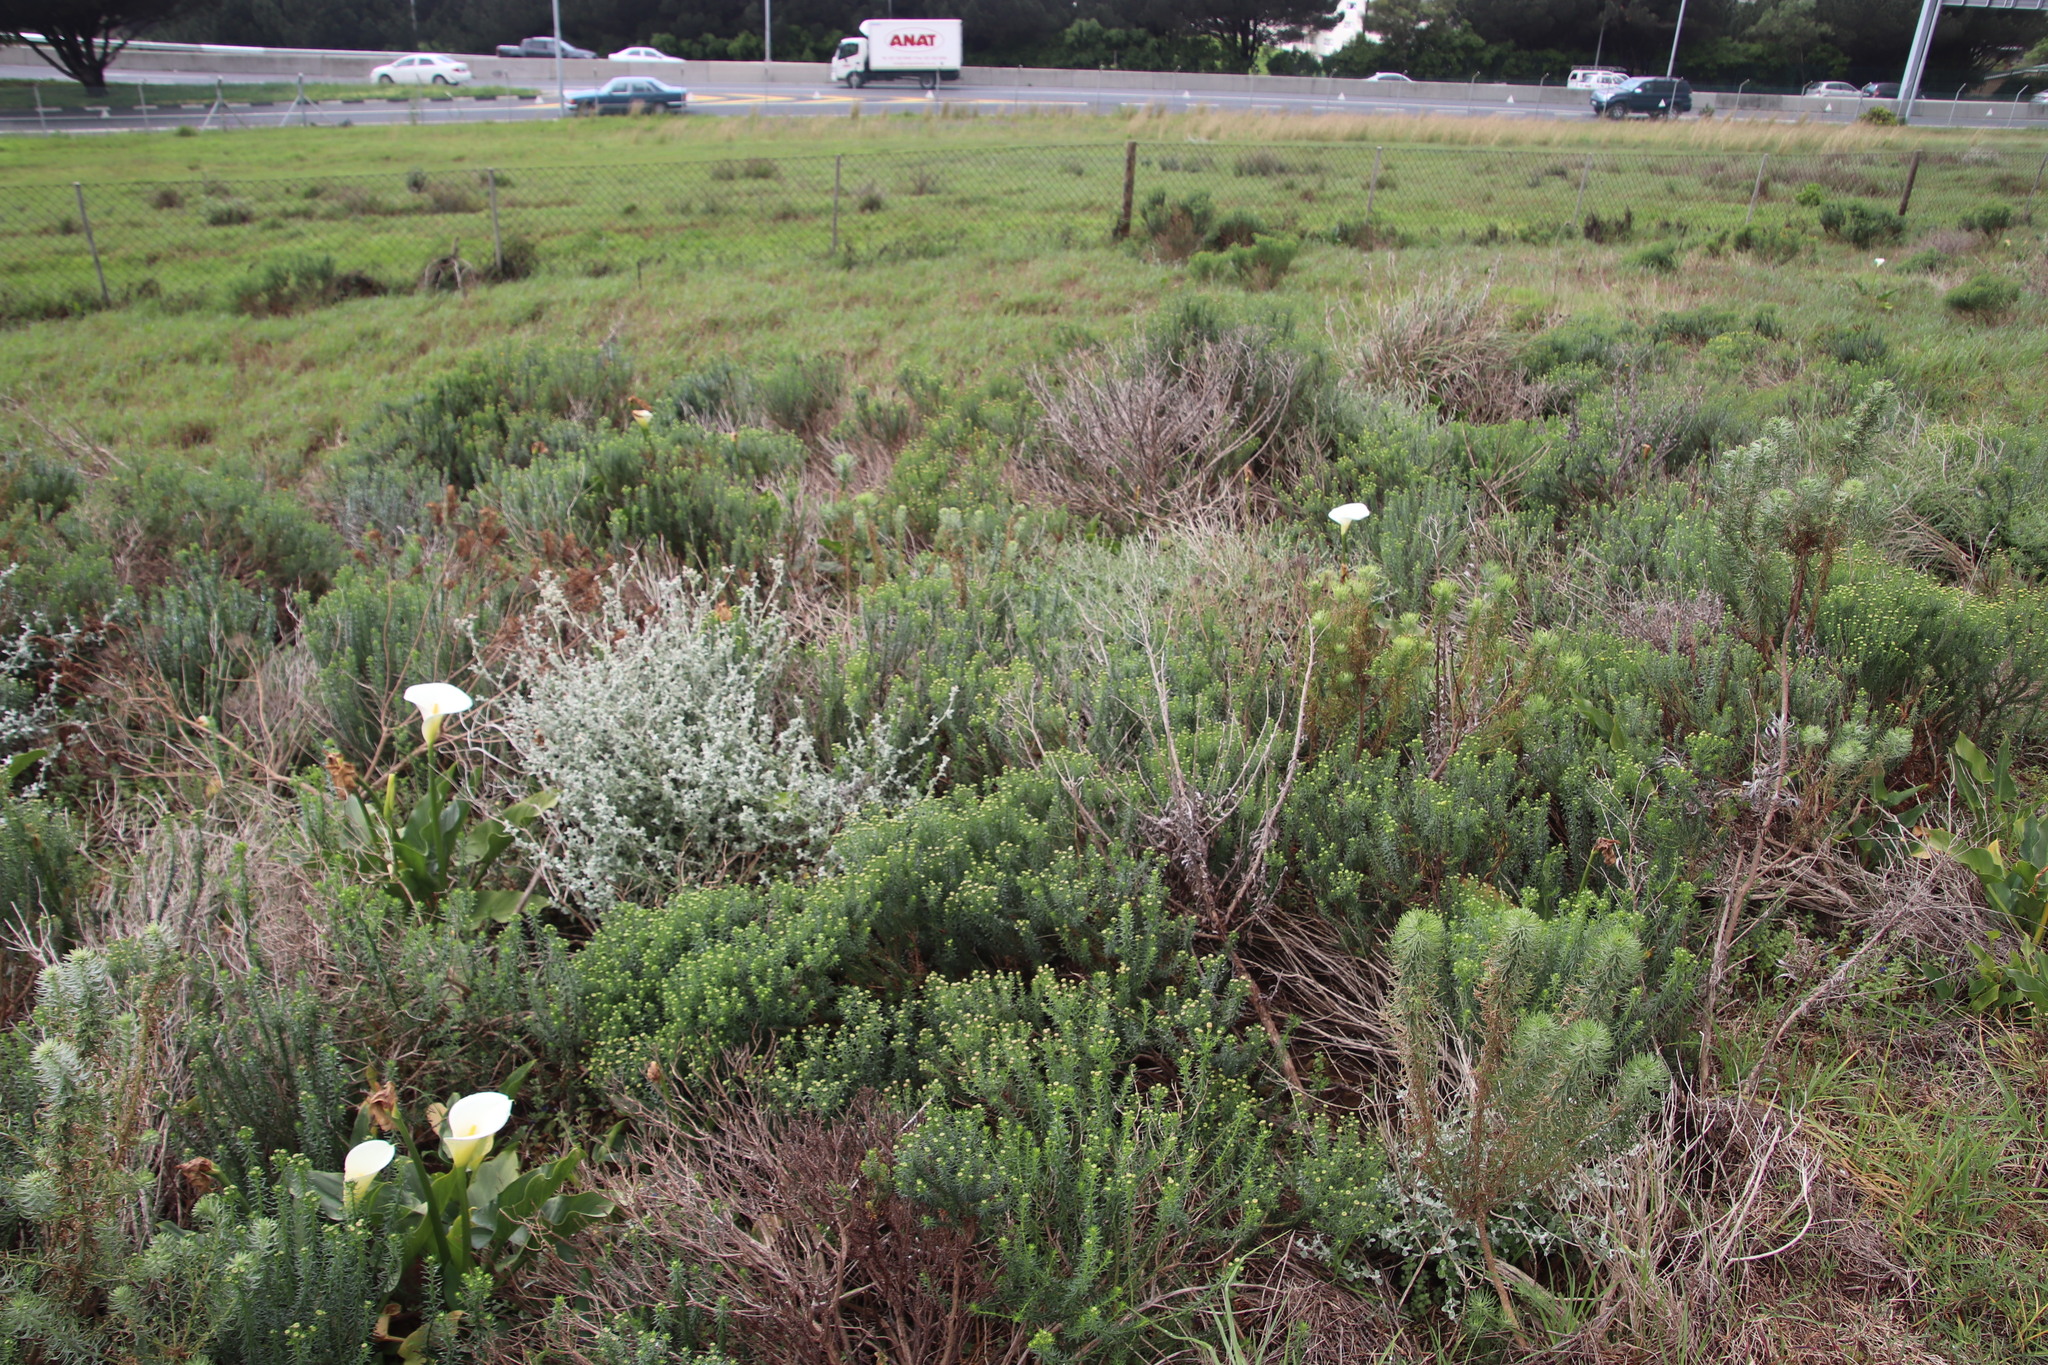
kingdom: Plantae
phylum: Tracheophyta
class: Magnoliopsida
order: Asterales
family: Asteraceae
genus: Chrysocoma
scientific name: Chrysocoma cernua
